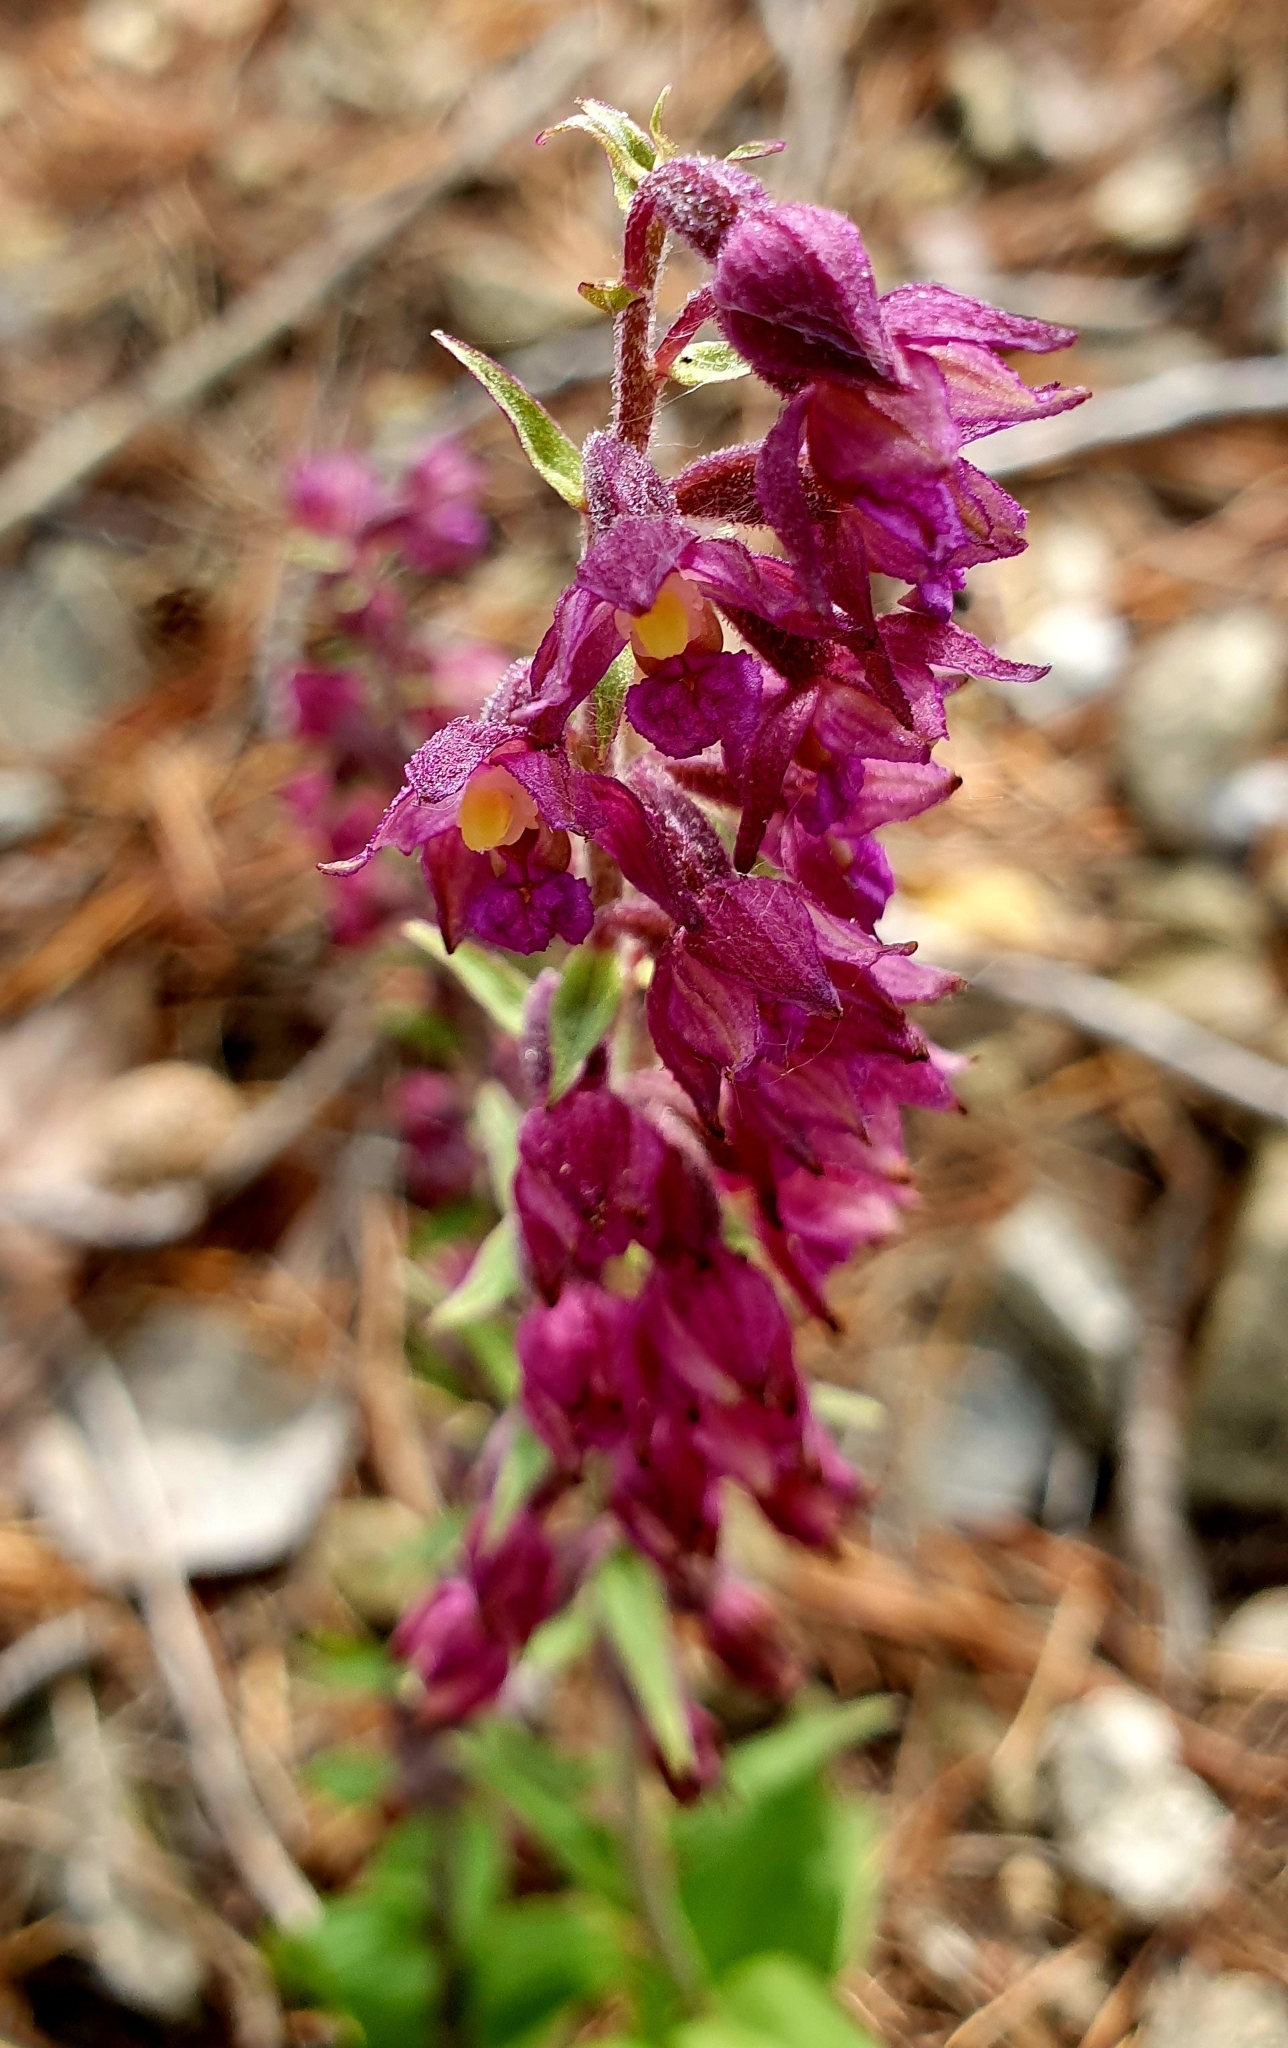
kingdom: Plantae
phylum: Tracheophyta
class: Liliopsida
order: Asparagales
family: Orchidaceae
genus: Epipactis
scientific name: Epipactis atrorubens
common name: Dark-red helleborine
